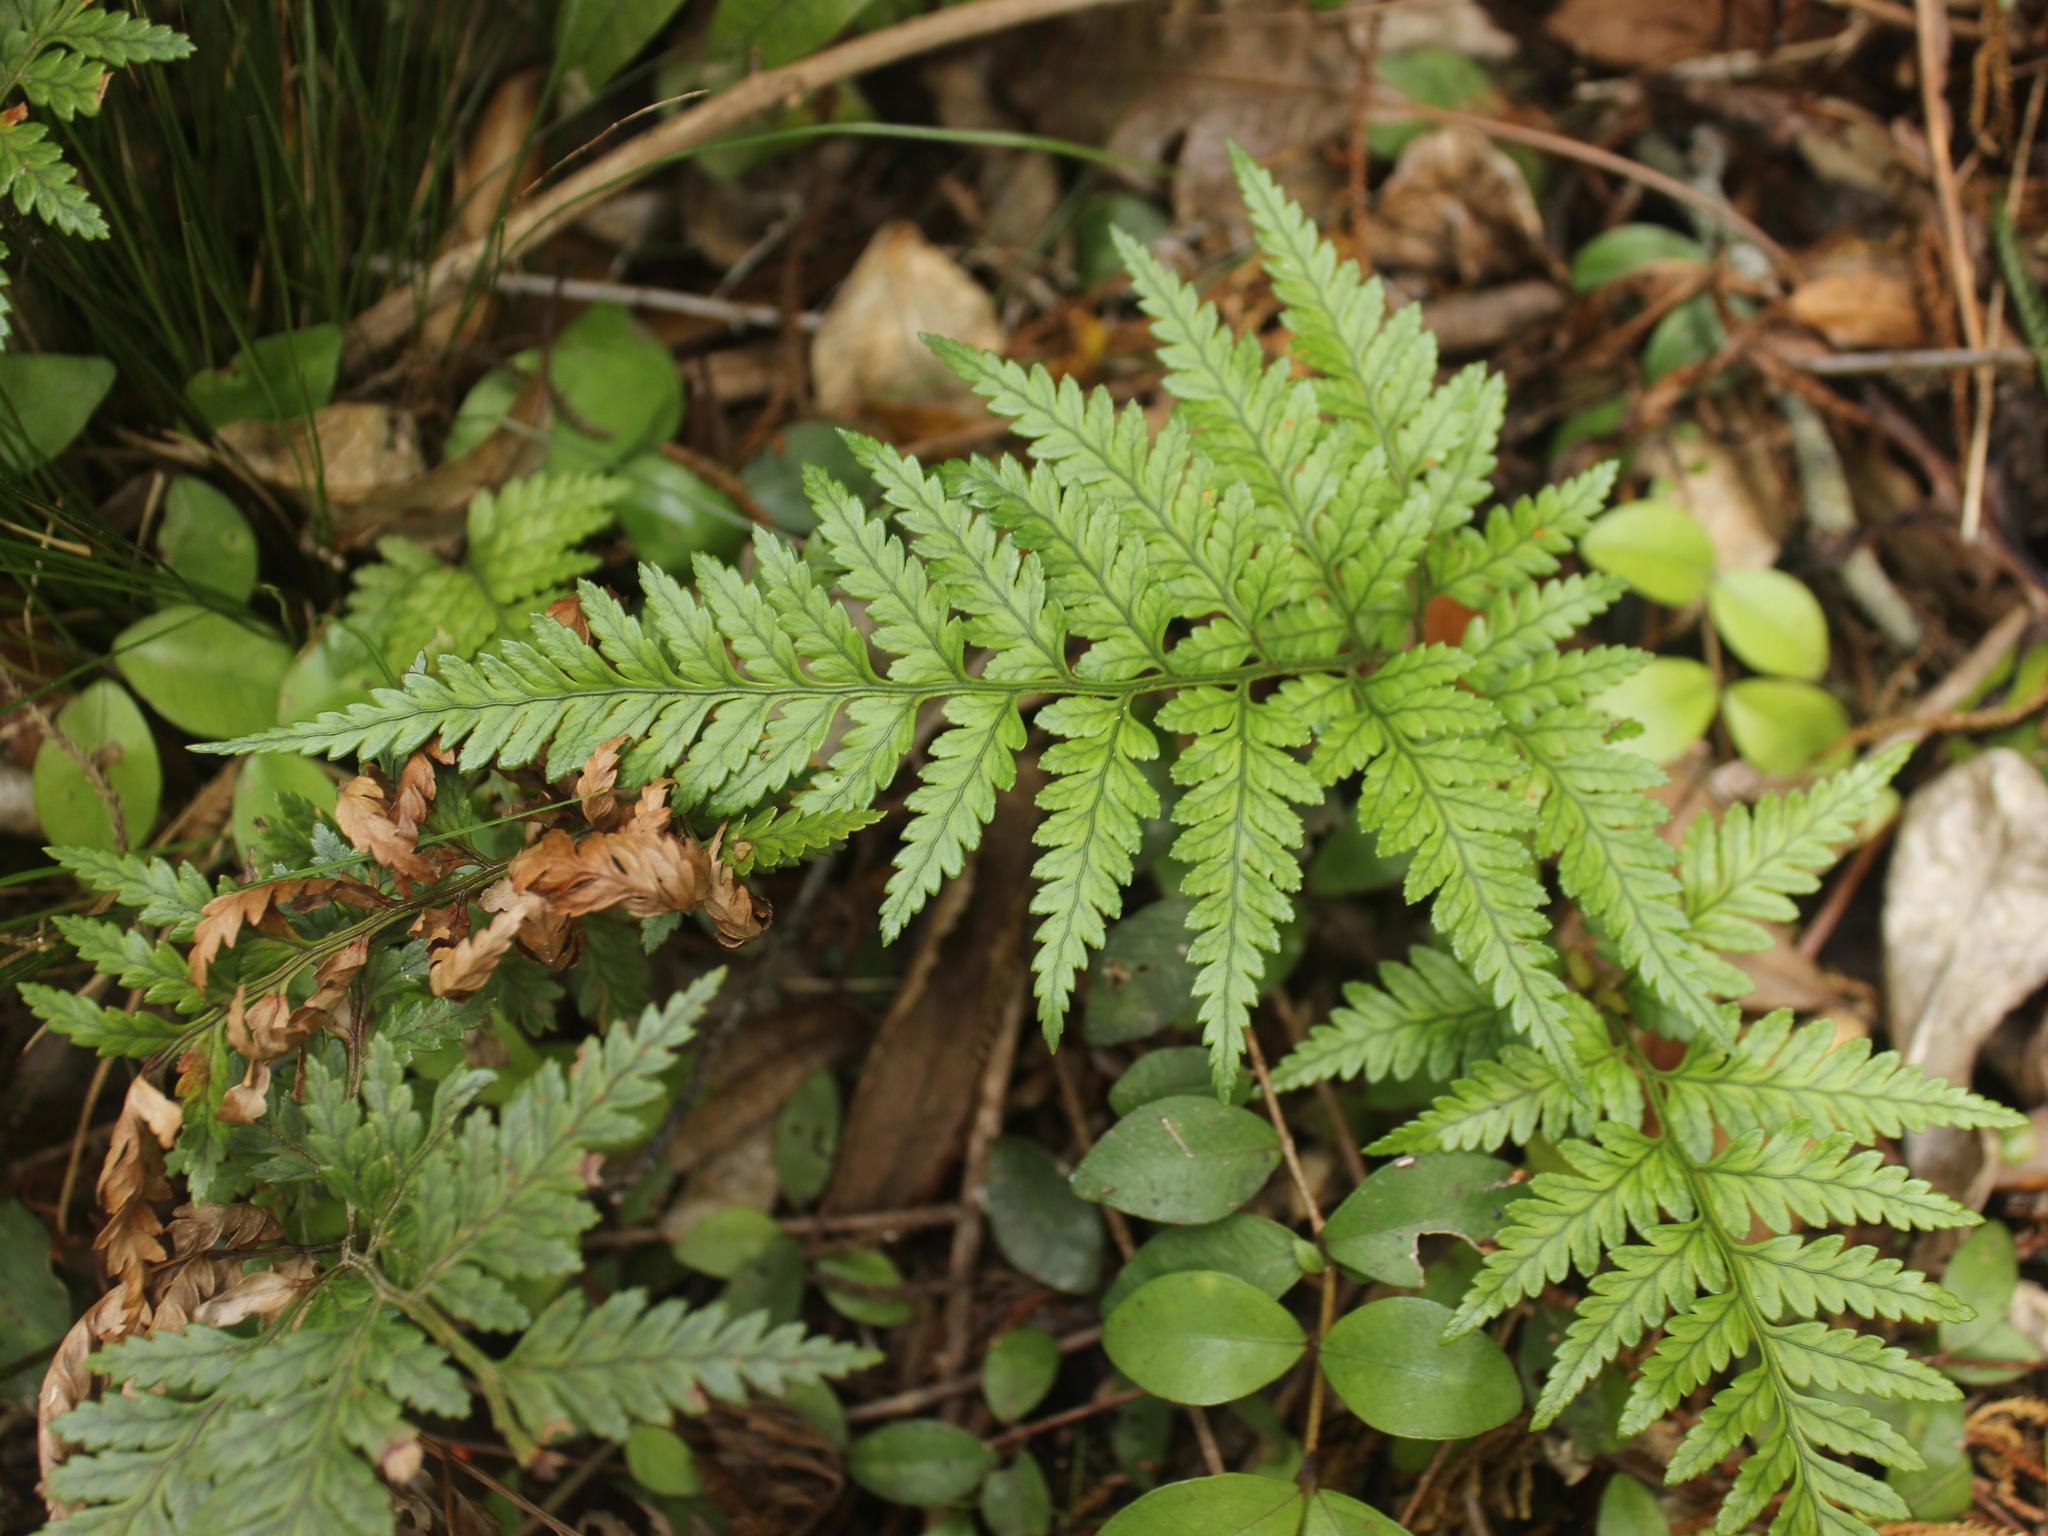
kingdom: Plantae
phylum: Tracheophyta
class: Polypodiopsida
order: Polypodiales
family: Dryopteridaceae
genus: Rumohra
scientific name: Rumohra adiantiformis
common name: Leather fern
